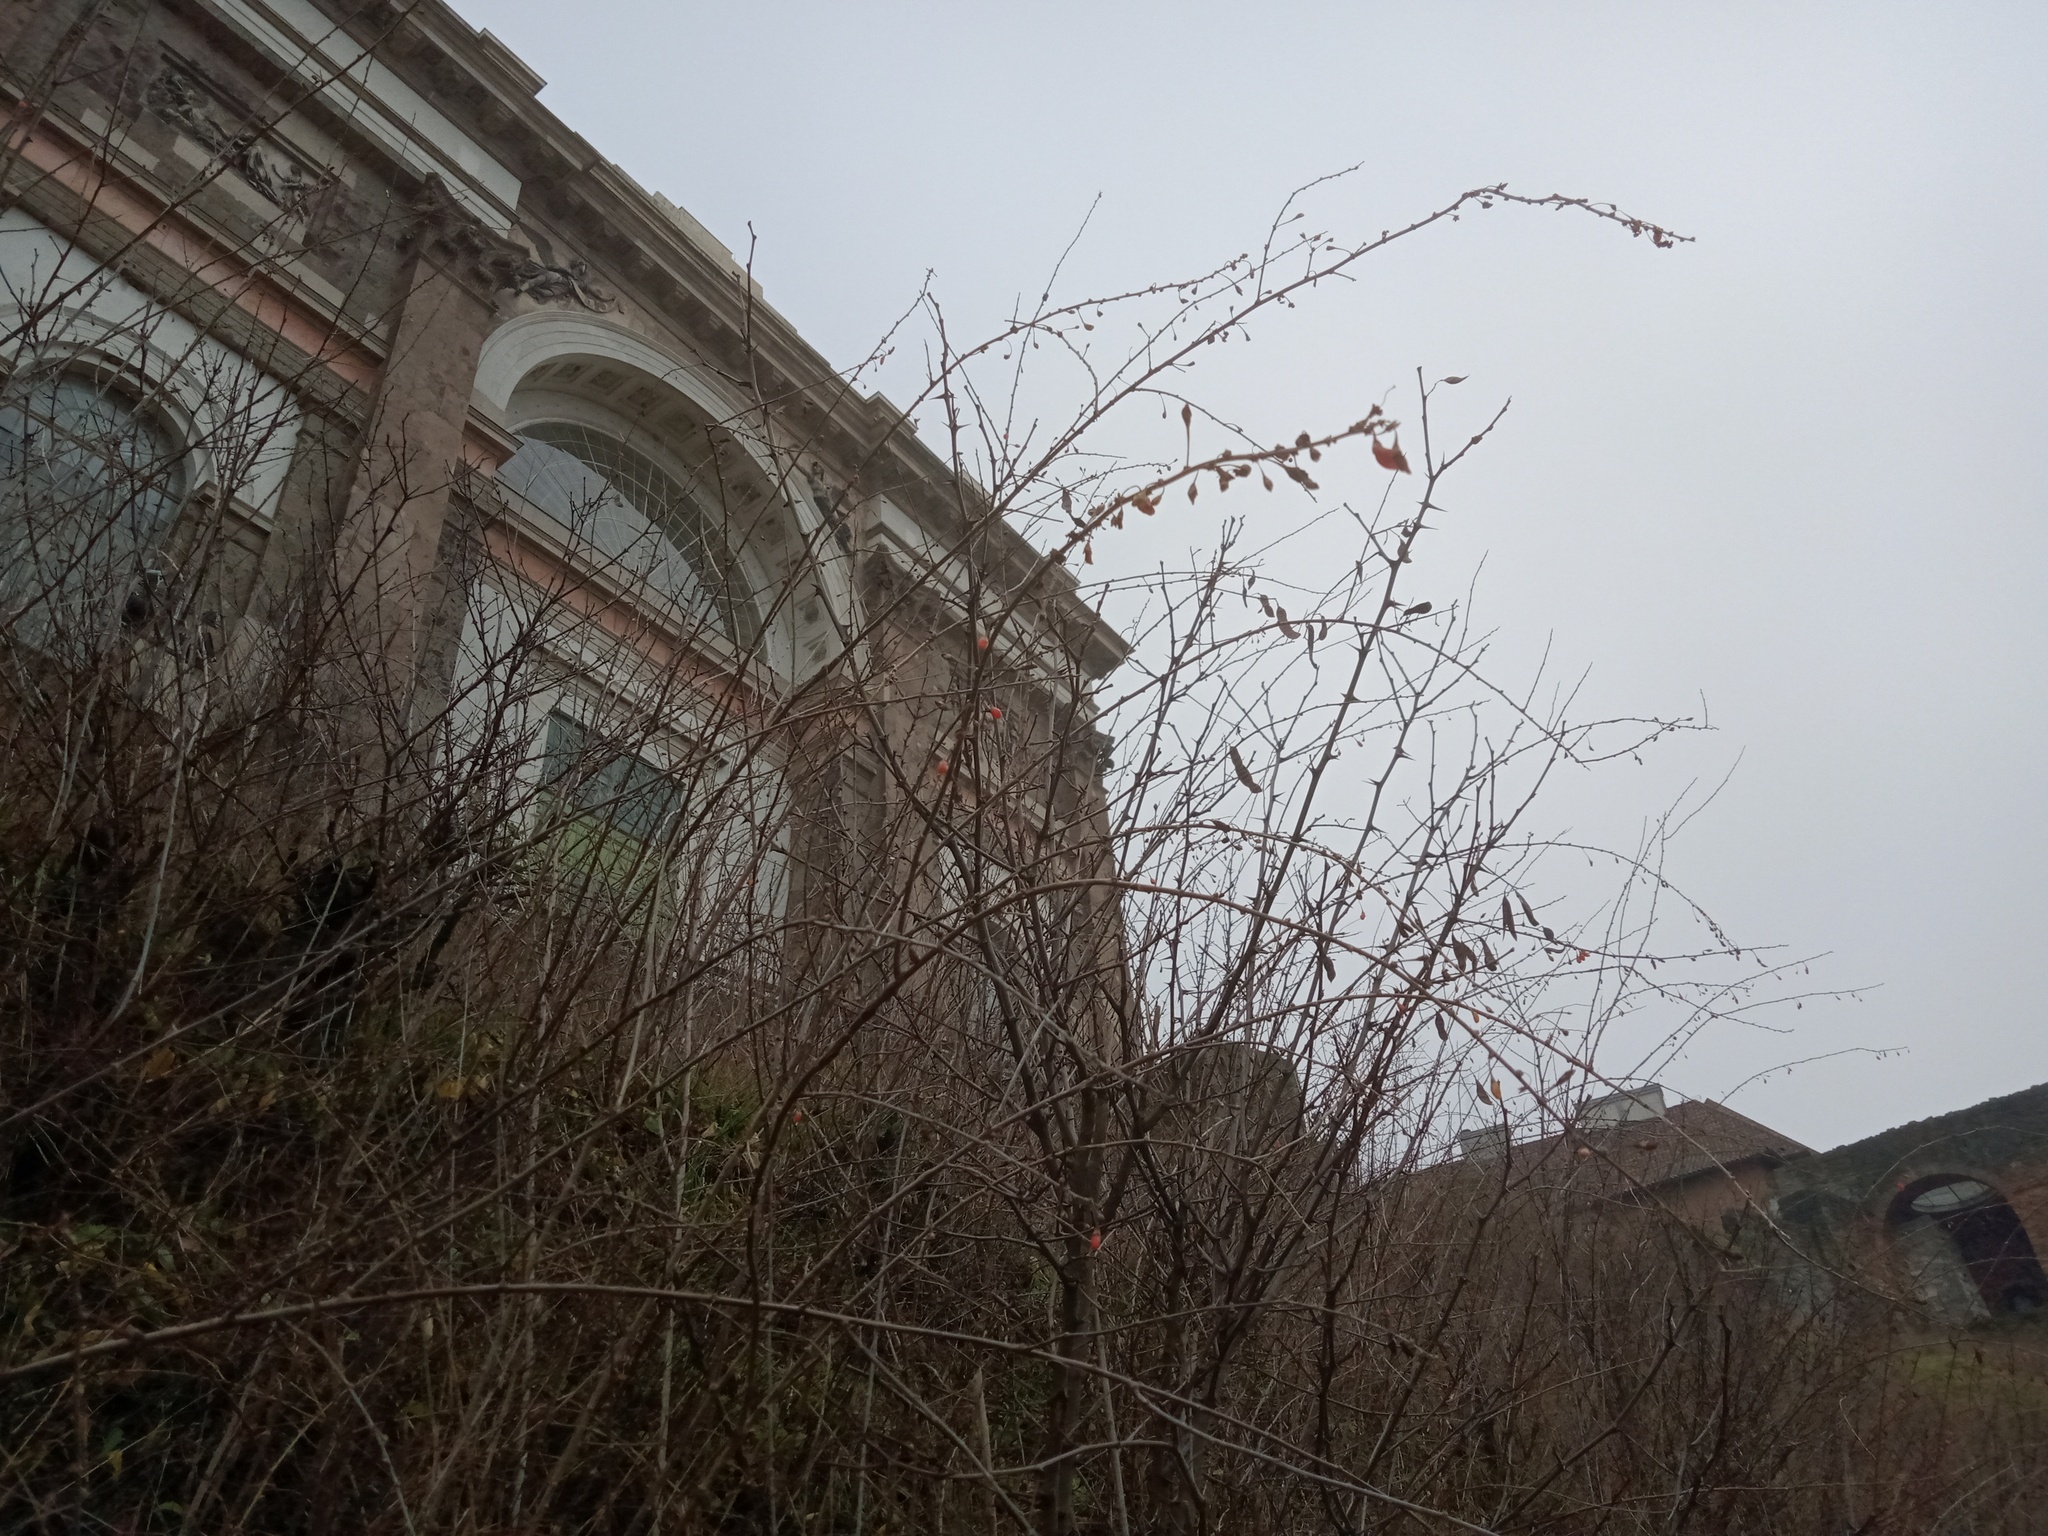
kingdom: Plantae
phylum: Tracheophyta
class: Magnoliopsida
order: Solanales
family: Solanaceae
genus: Lycium
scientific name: Lycium
